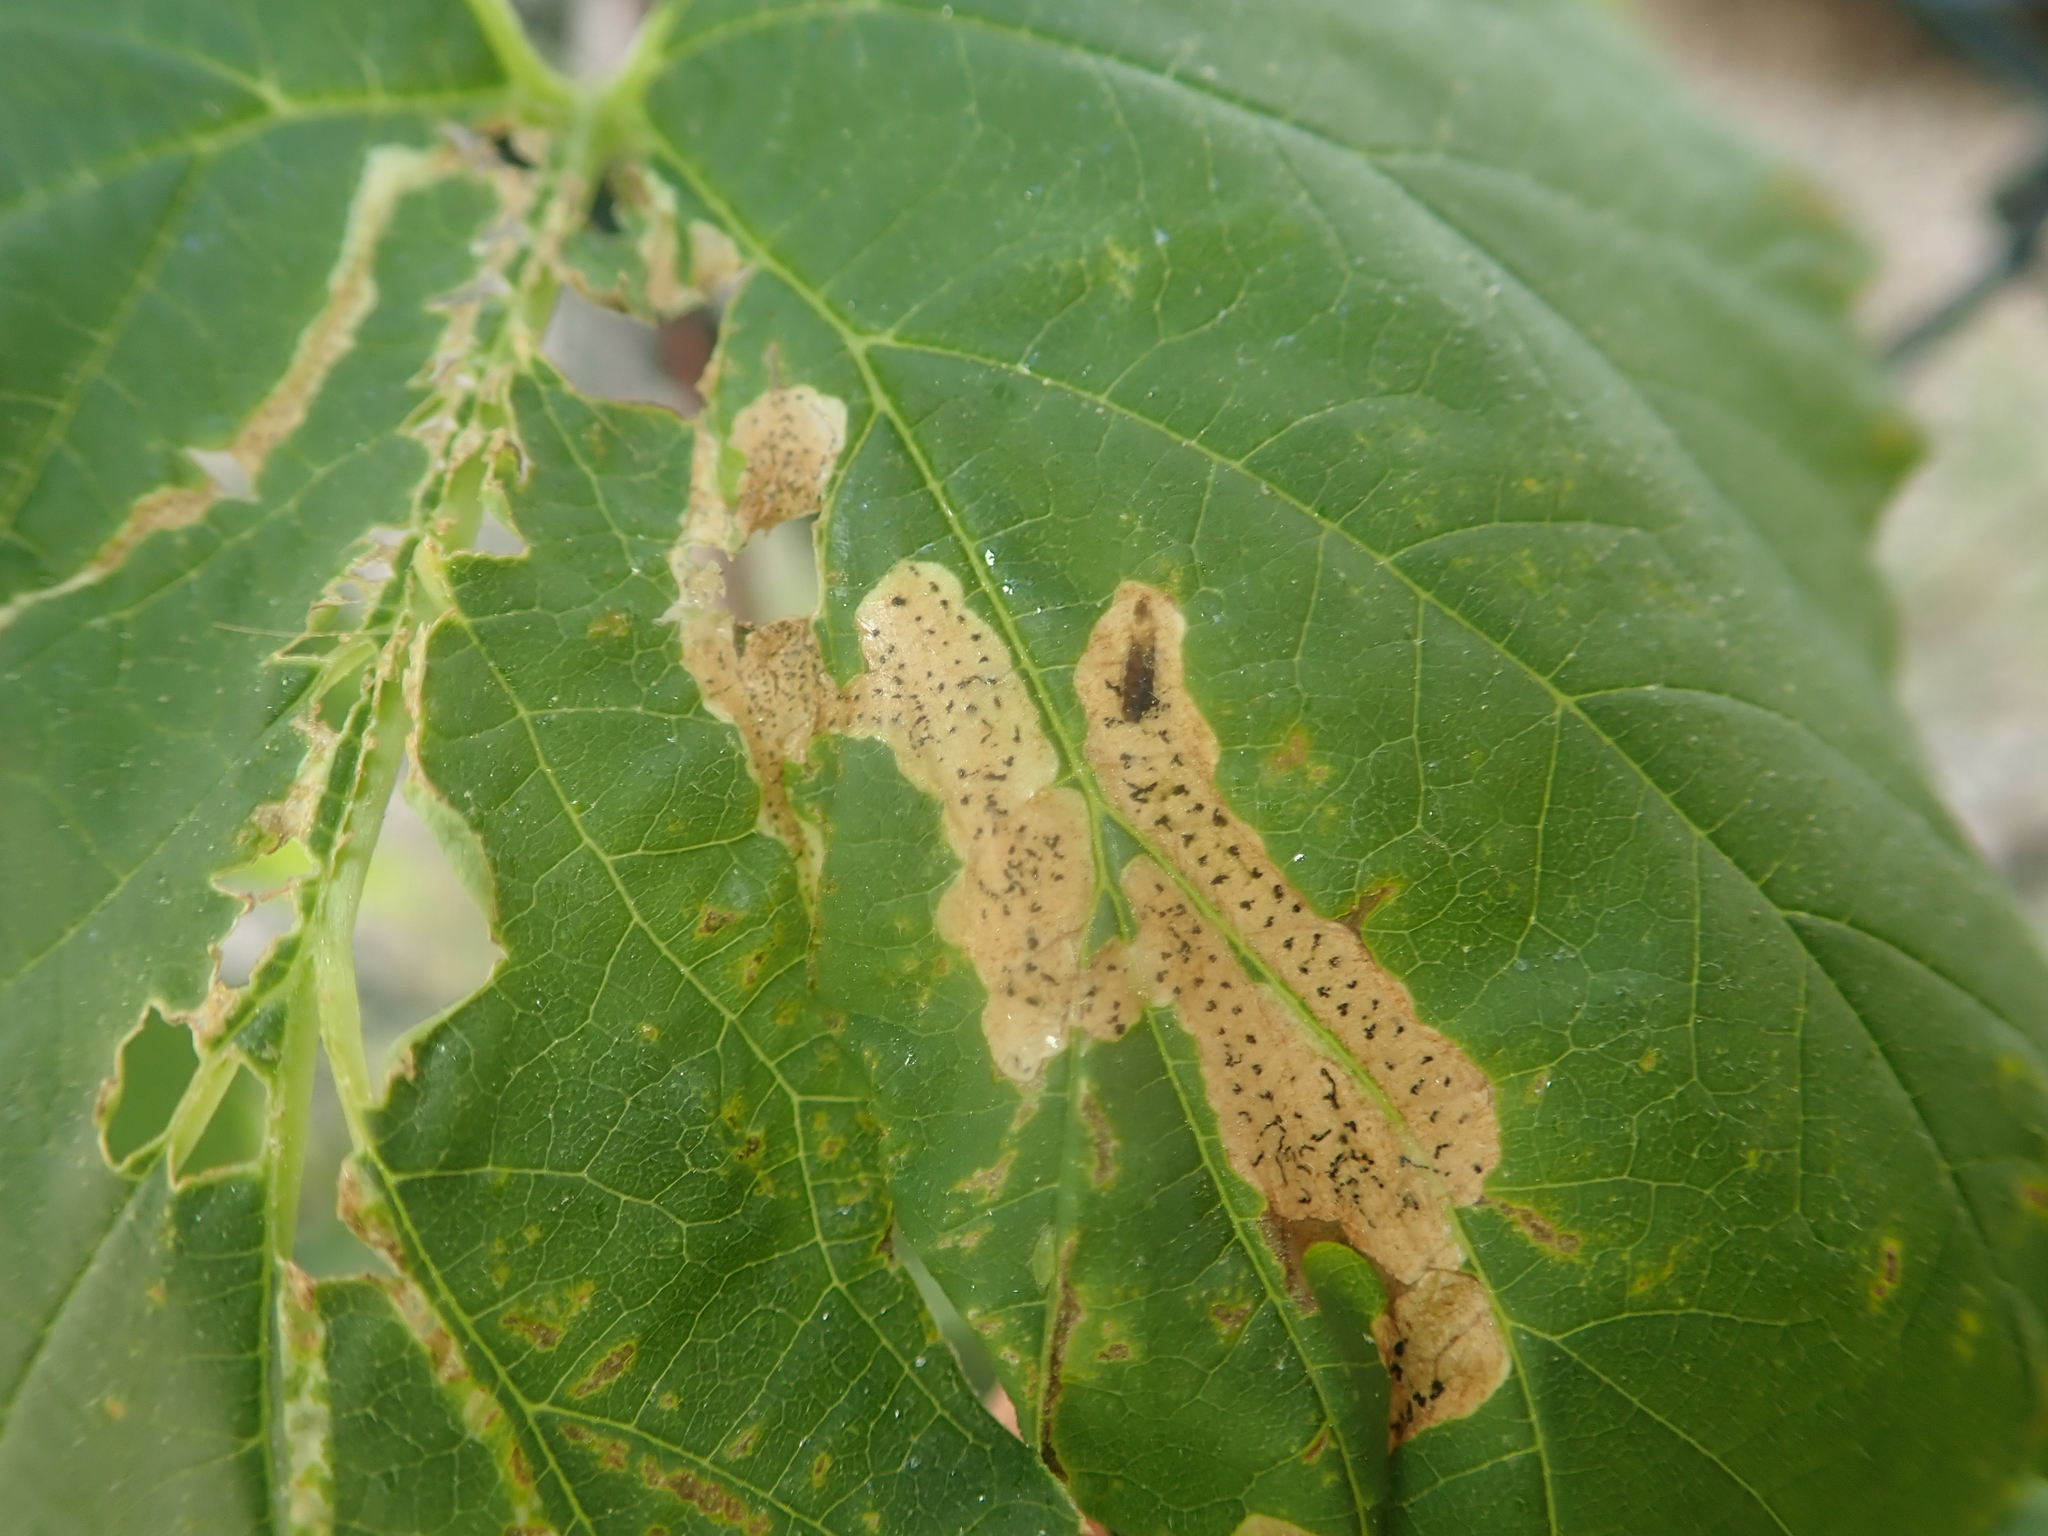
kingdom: Animalia
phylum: Arthropoda
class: Insecta
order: Diptera
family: Agromyzidae
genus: Agromyza
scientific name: Agromyza igniceps
